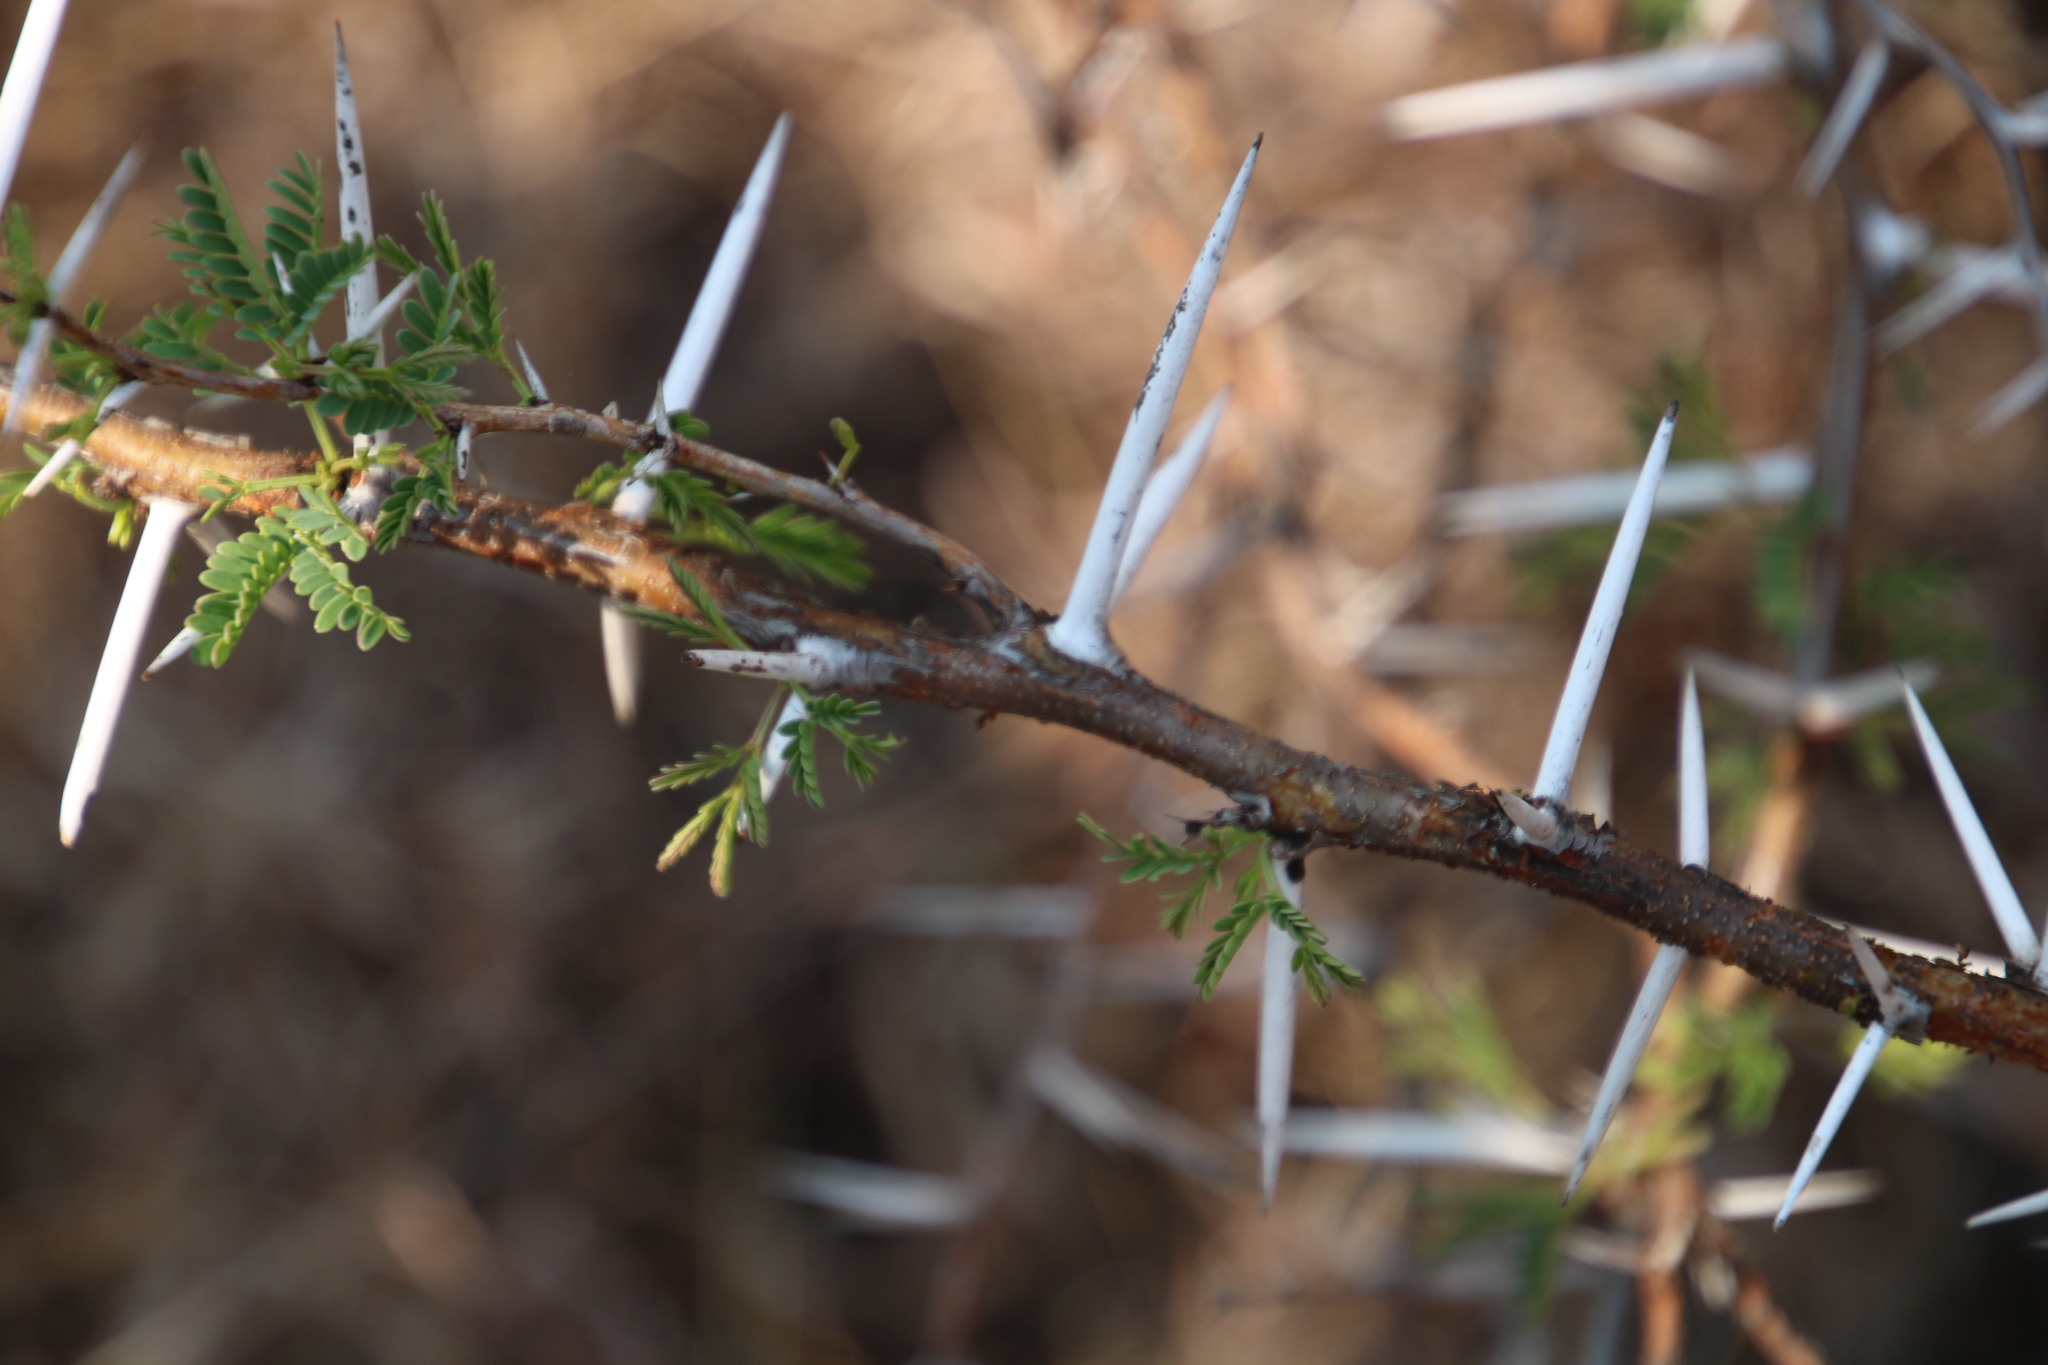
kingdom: Plantae
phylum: Tracheophyta
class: Magnoliopsida
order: Fabales
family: Fabaceae
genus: Vachellia
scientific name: Vachellia karroo
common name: Sweet thorn
